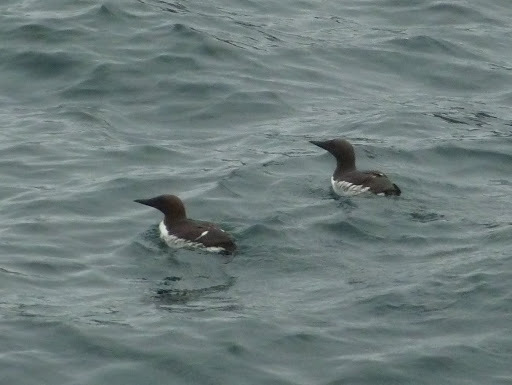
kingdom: Animalia
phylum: Chordata
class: Aves
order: Charadriiformes
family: Alcidae
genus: Uria
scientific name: Uria aalge
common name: Common murre
